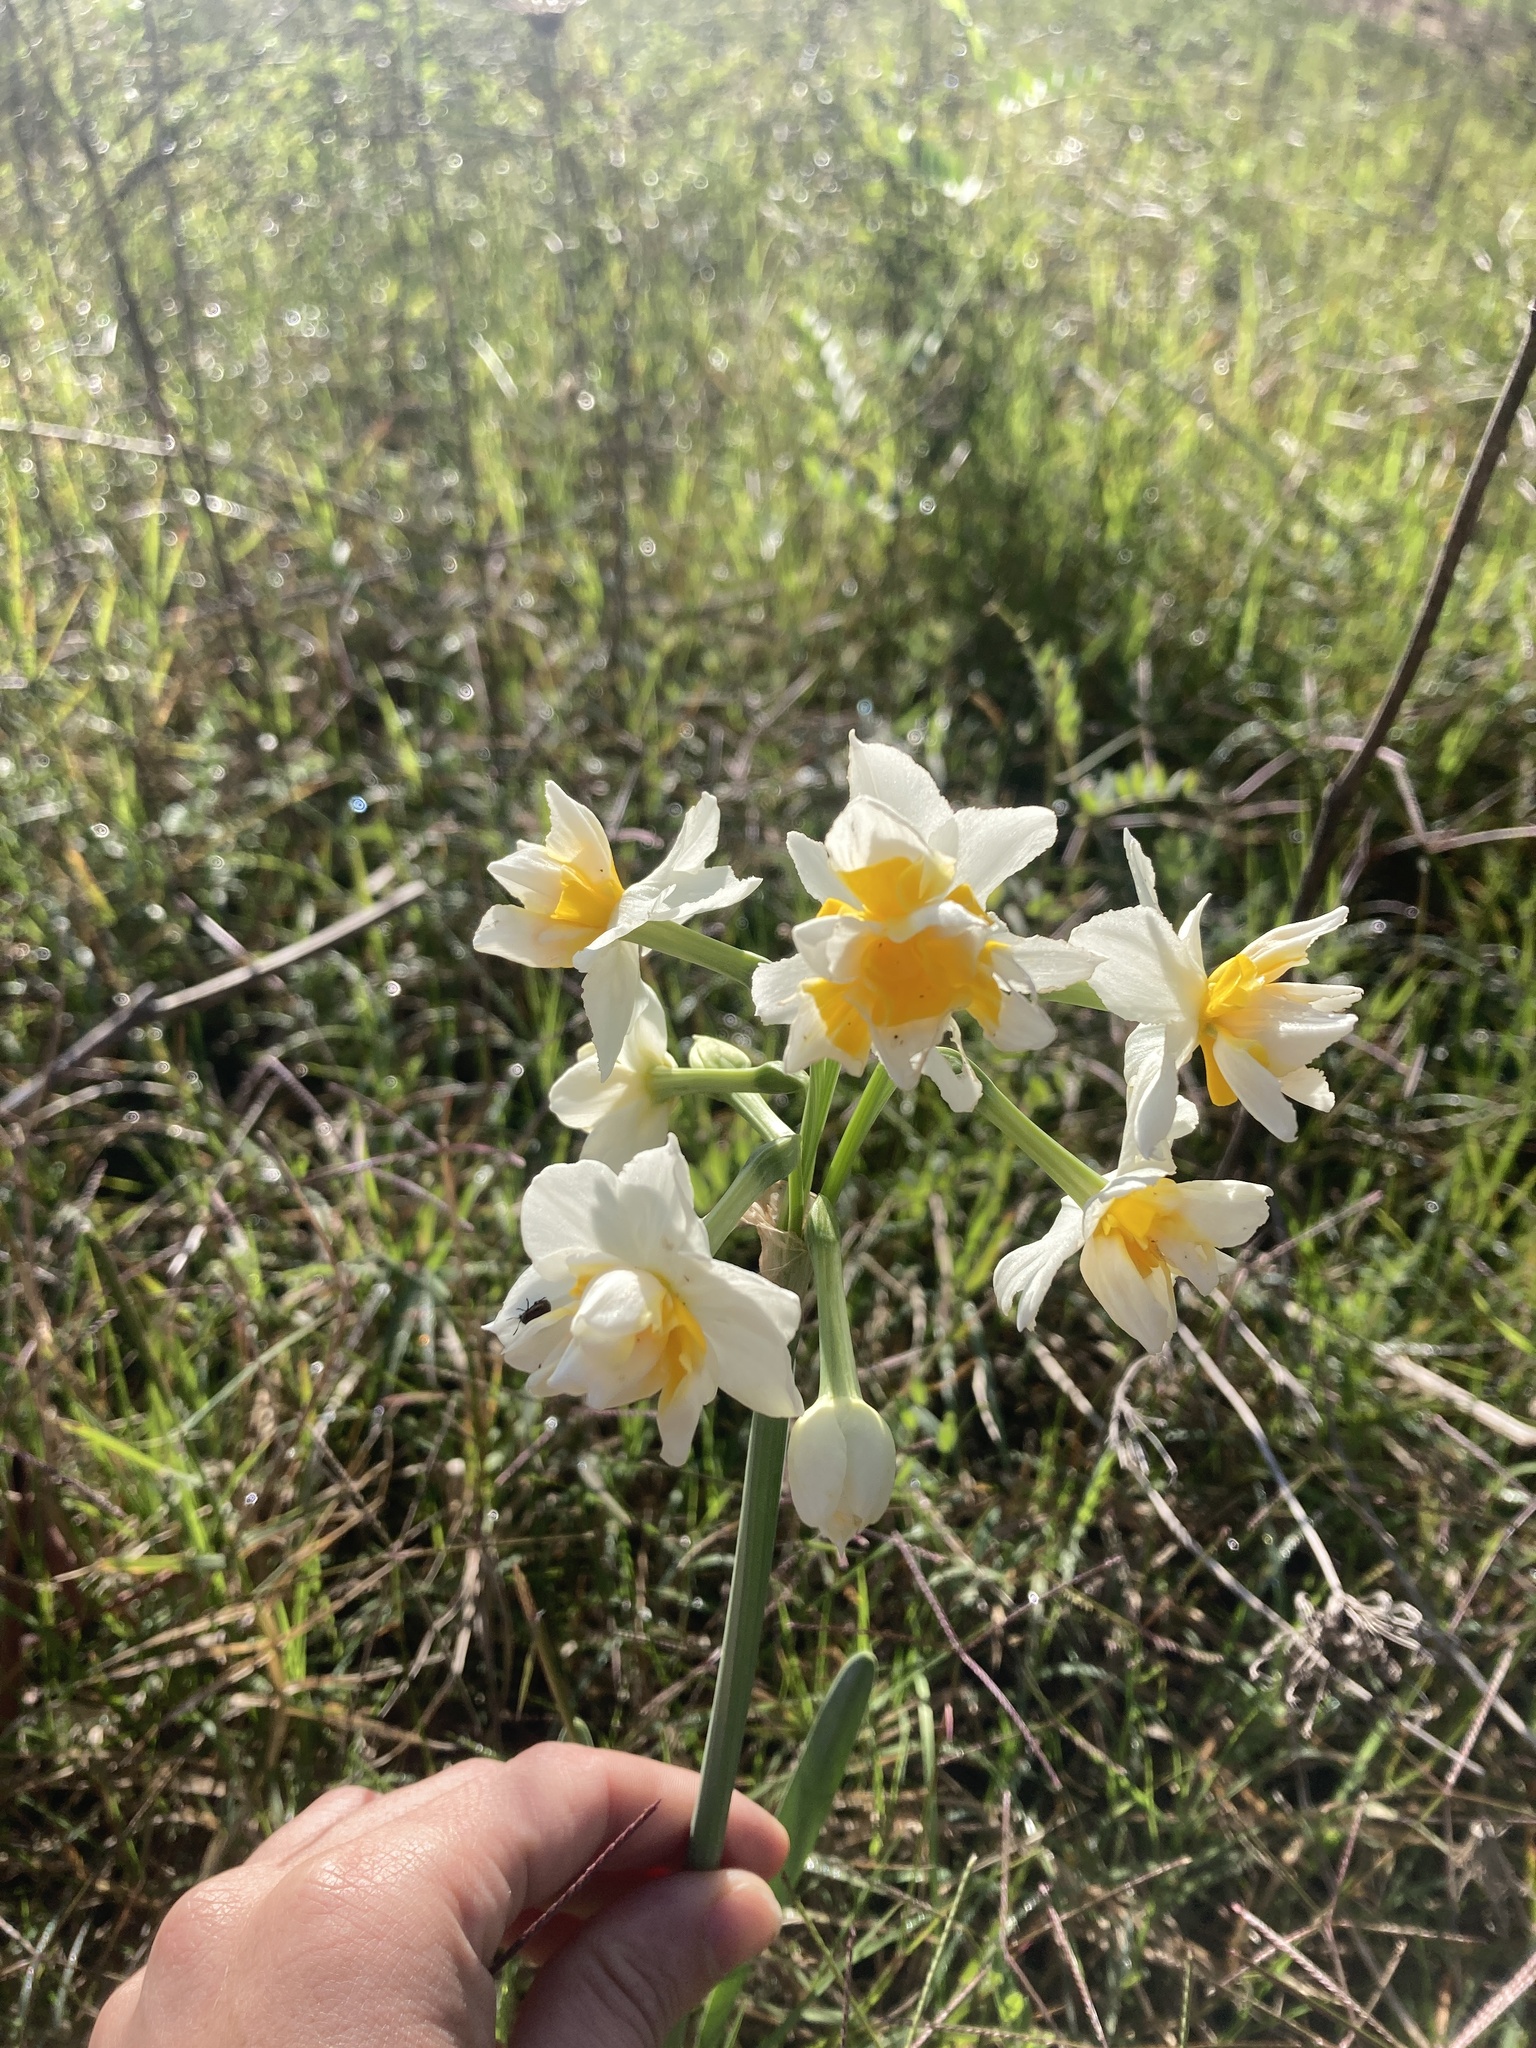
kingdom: Plantae
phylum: Tracheophyta
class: Liliopsida
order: Asparagales
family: Amaryllidaceae
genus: Narcissus
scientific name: Narcissus tazetta
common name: Bunch-flowered daffodil
